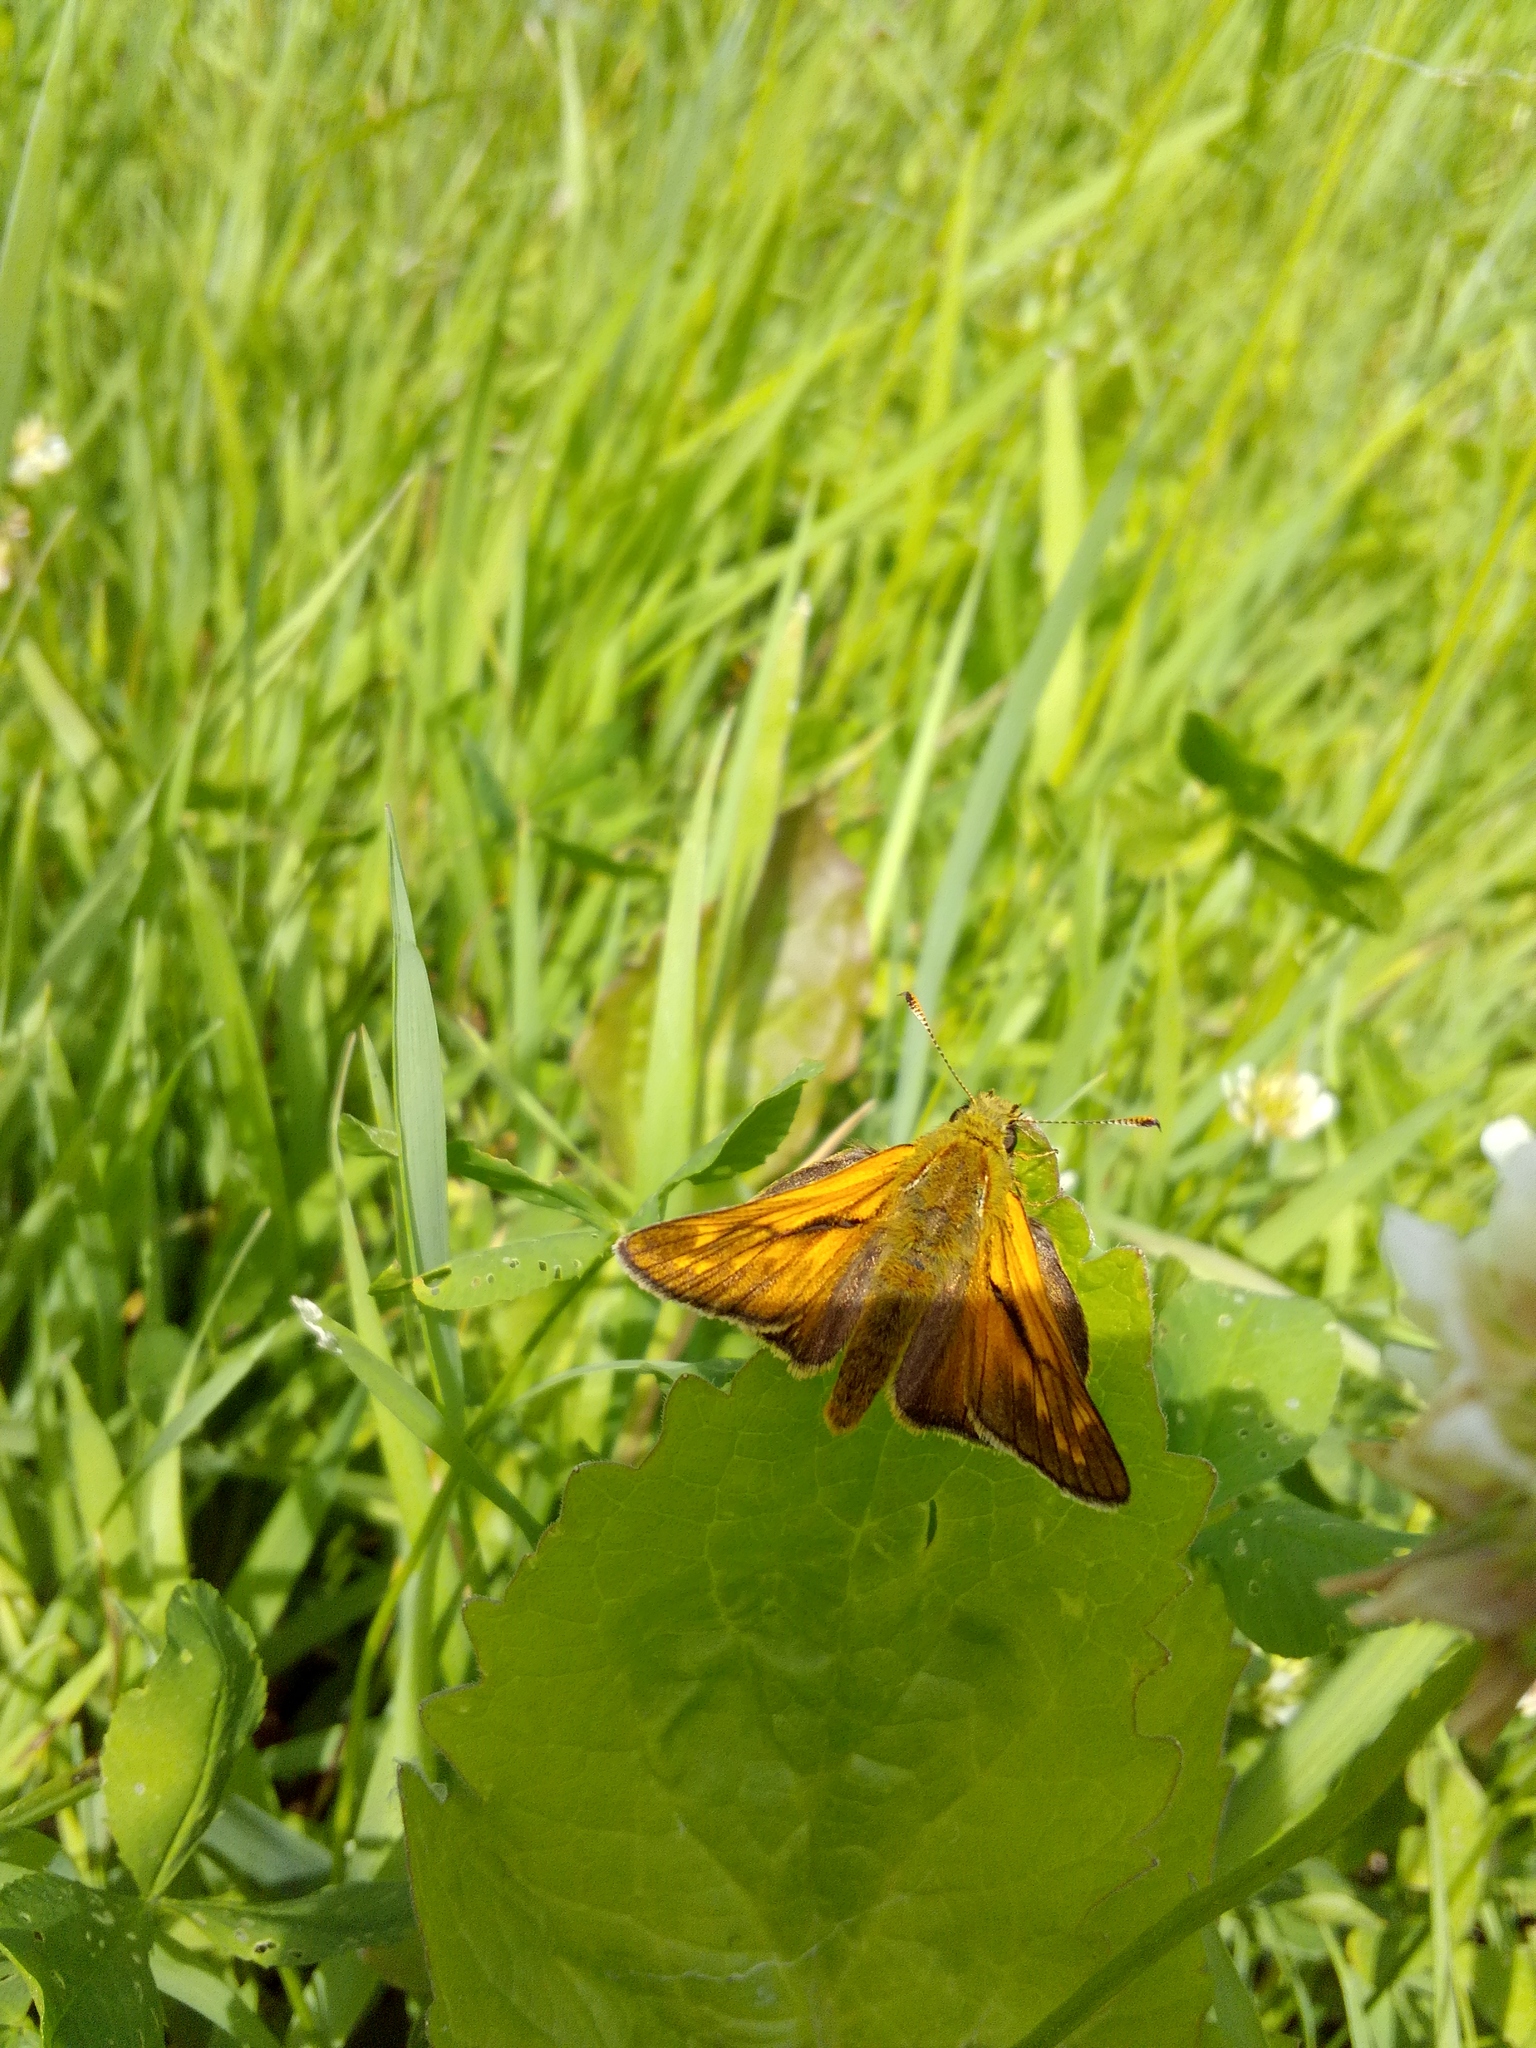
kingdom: Animalia
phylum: Arthropoda
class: Insecta
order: Lepidoptera
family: Hesperiidae
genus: Ochlodes
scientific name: Ochlodes venata
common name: Large skipper
